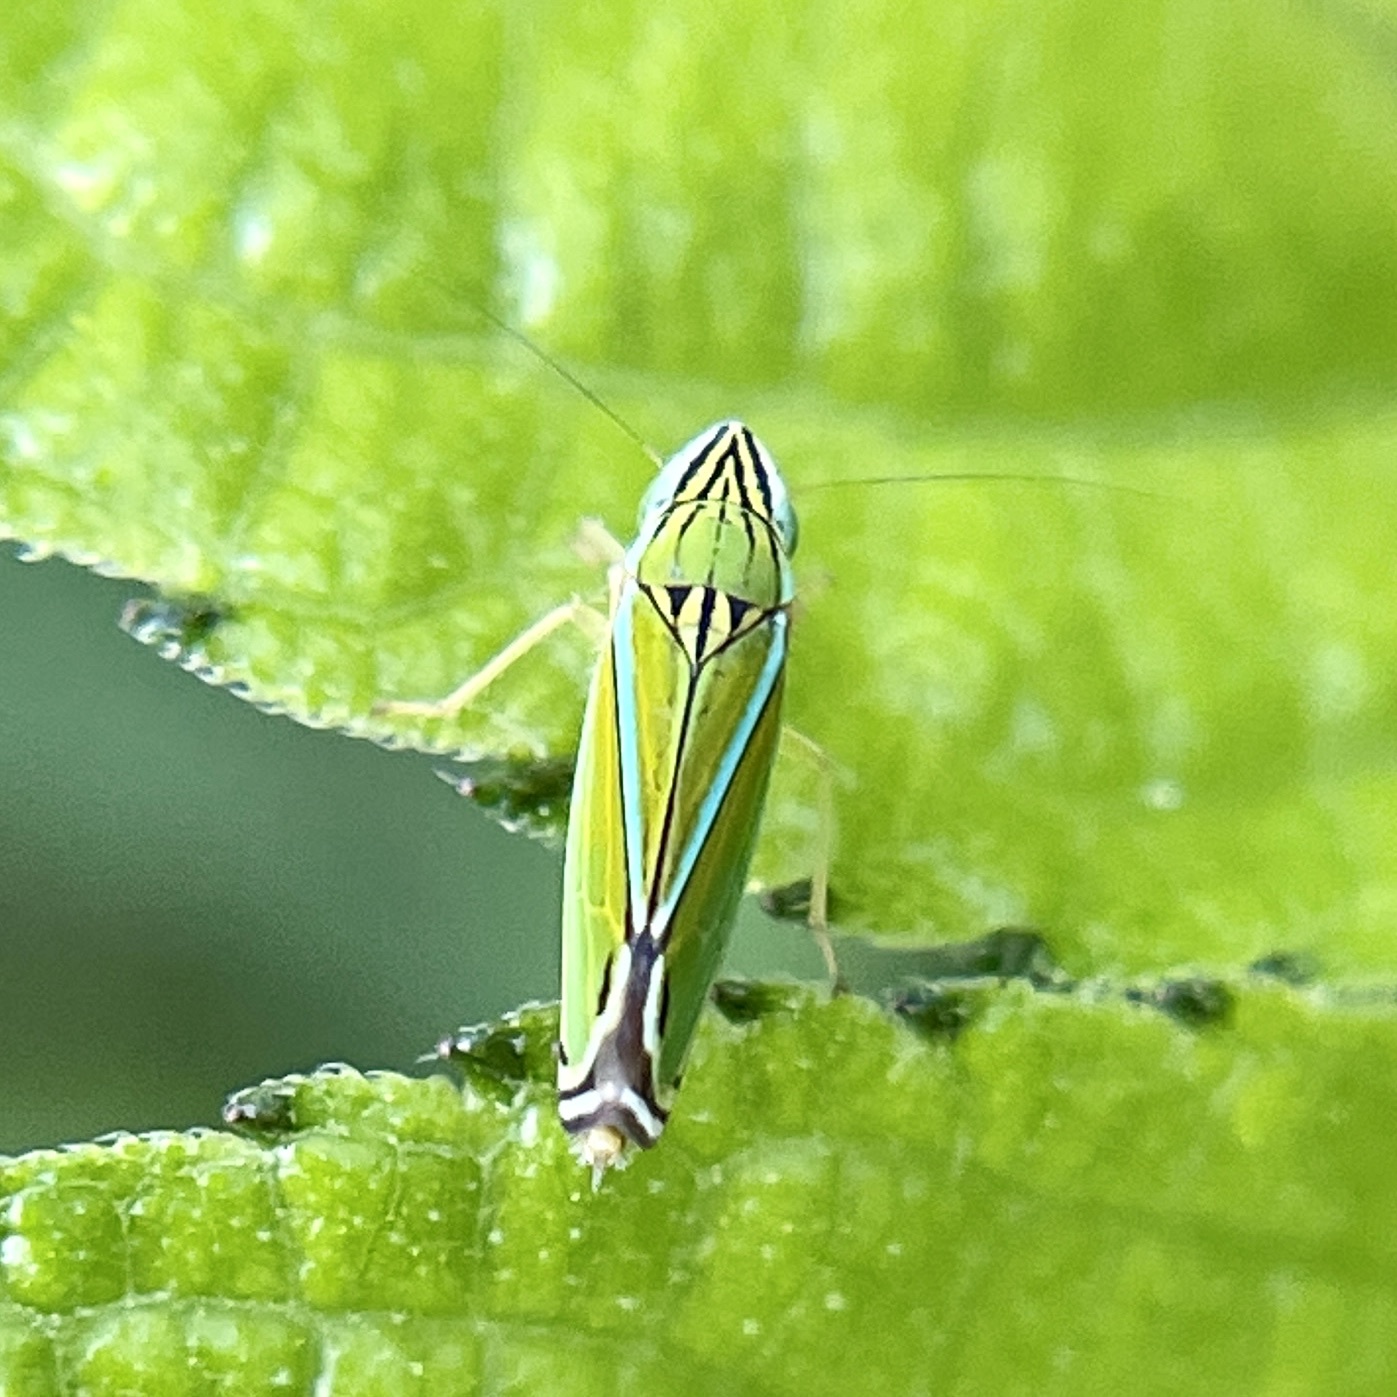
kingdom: Animalia
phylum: Arthropoda
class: Insecta
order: Hemiptera
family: Cicadellidae
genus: Sibovia
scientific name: Sibovia occatoria
